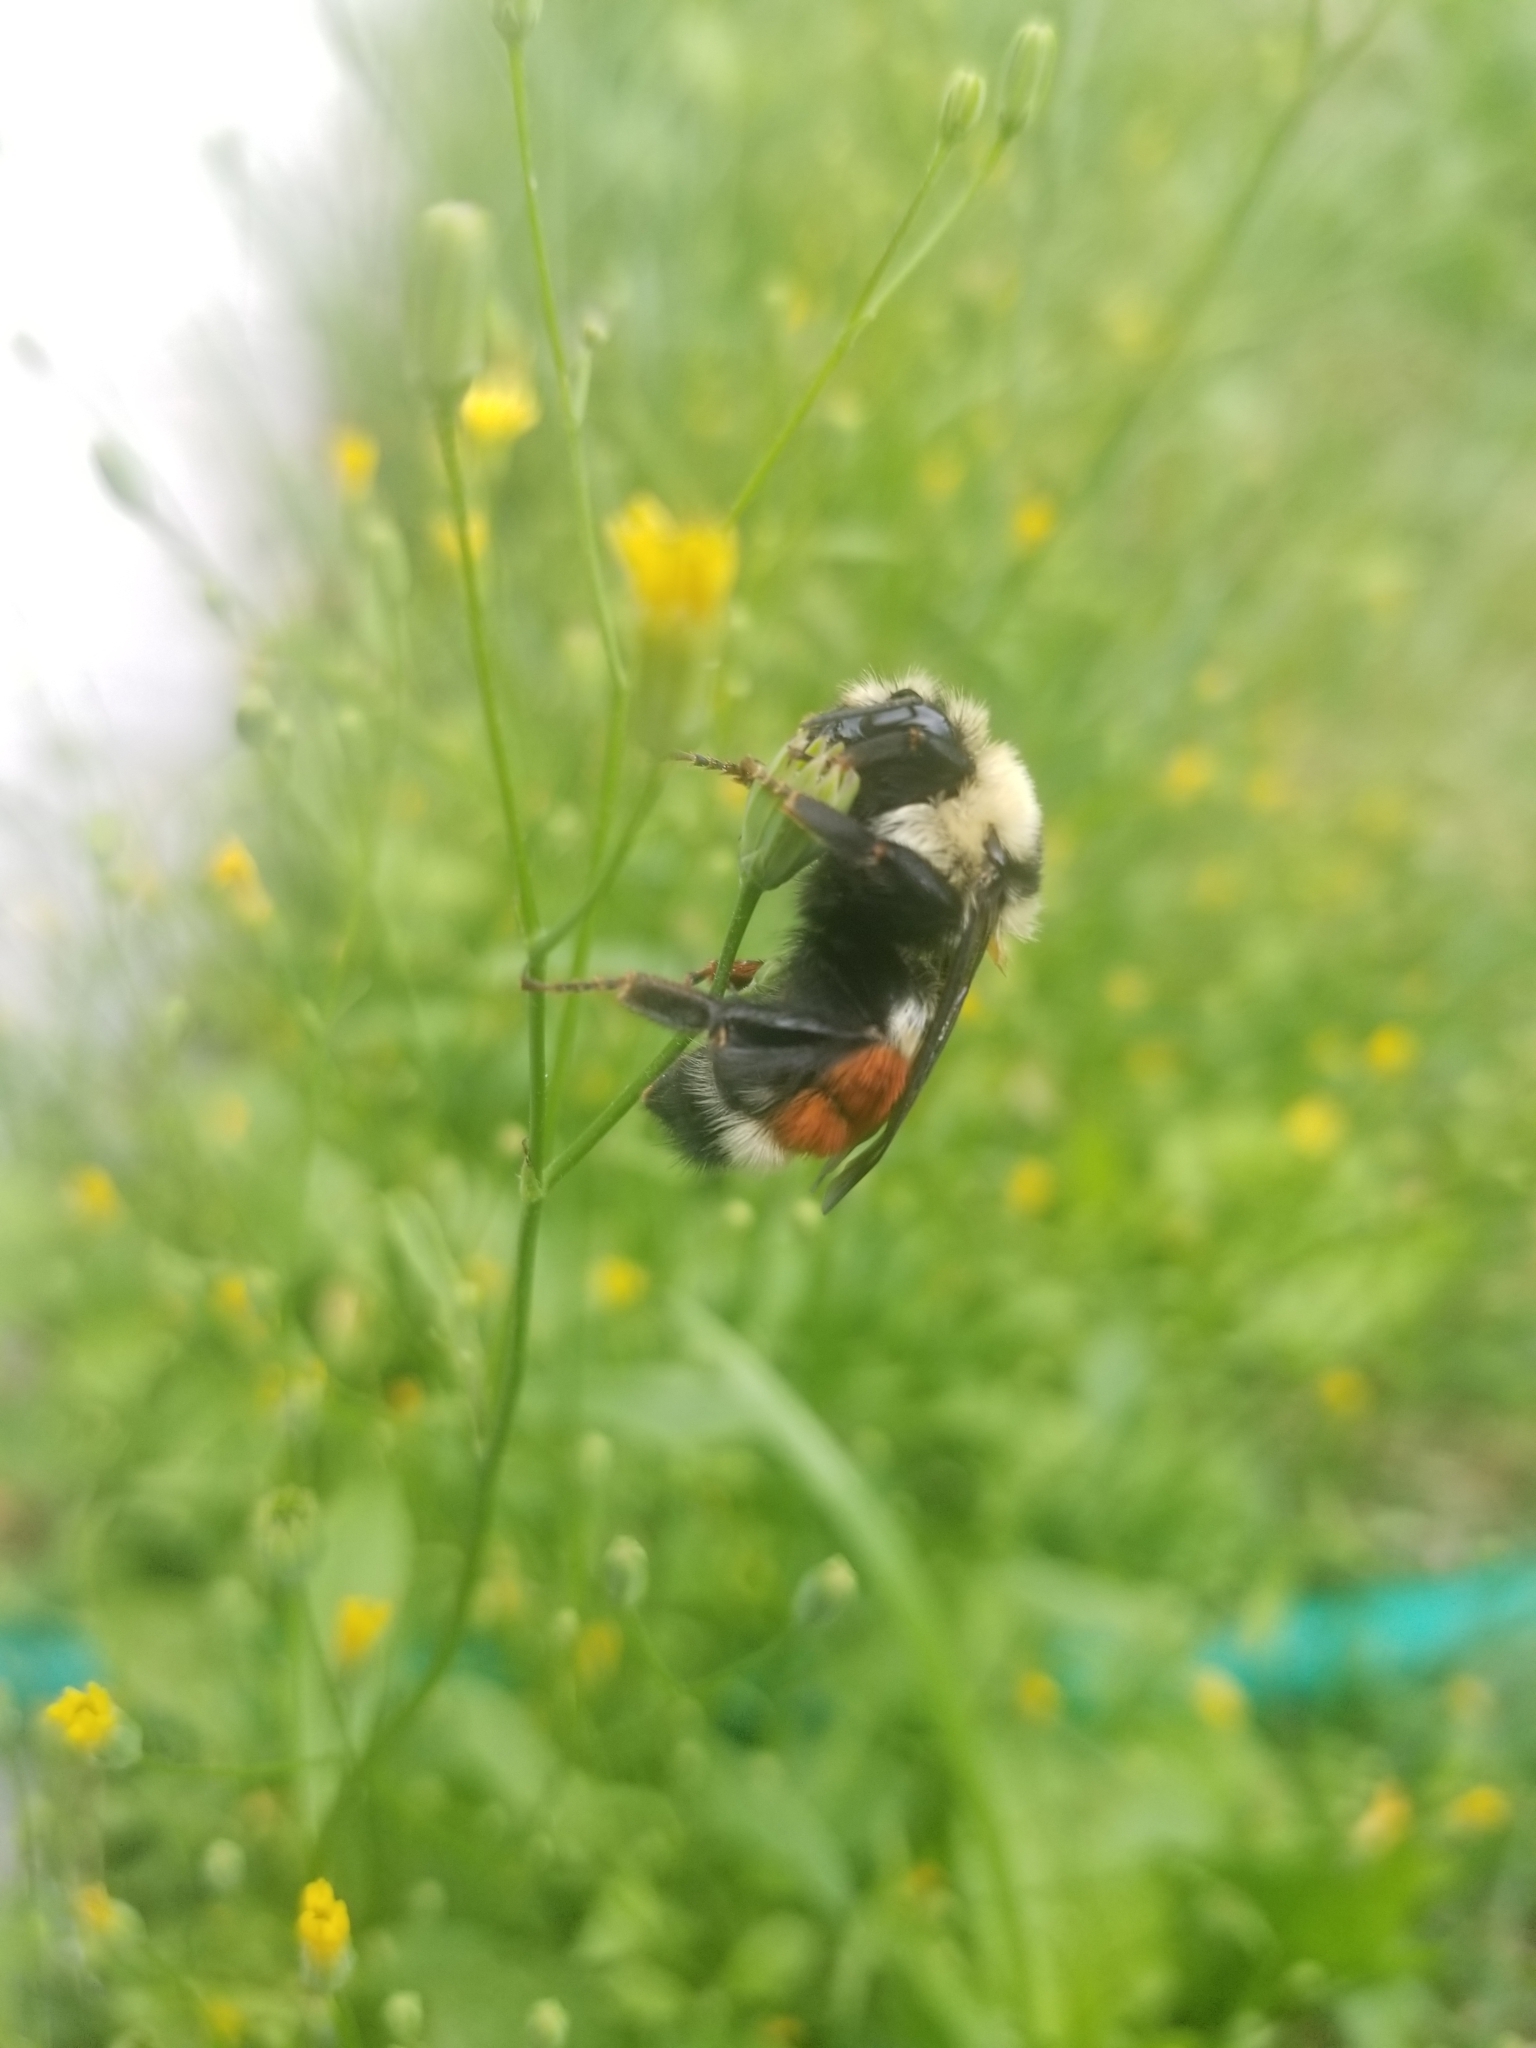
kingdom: Animalia
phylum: Arthropoda
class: Insecta
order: Hymenoptera
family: Apidae
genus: Bombus
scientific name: Bombus huntii
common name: Hunt bumble bee
